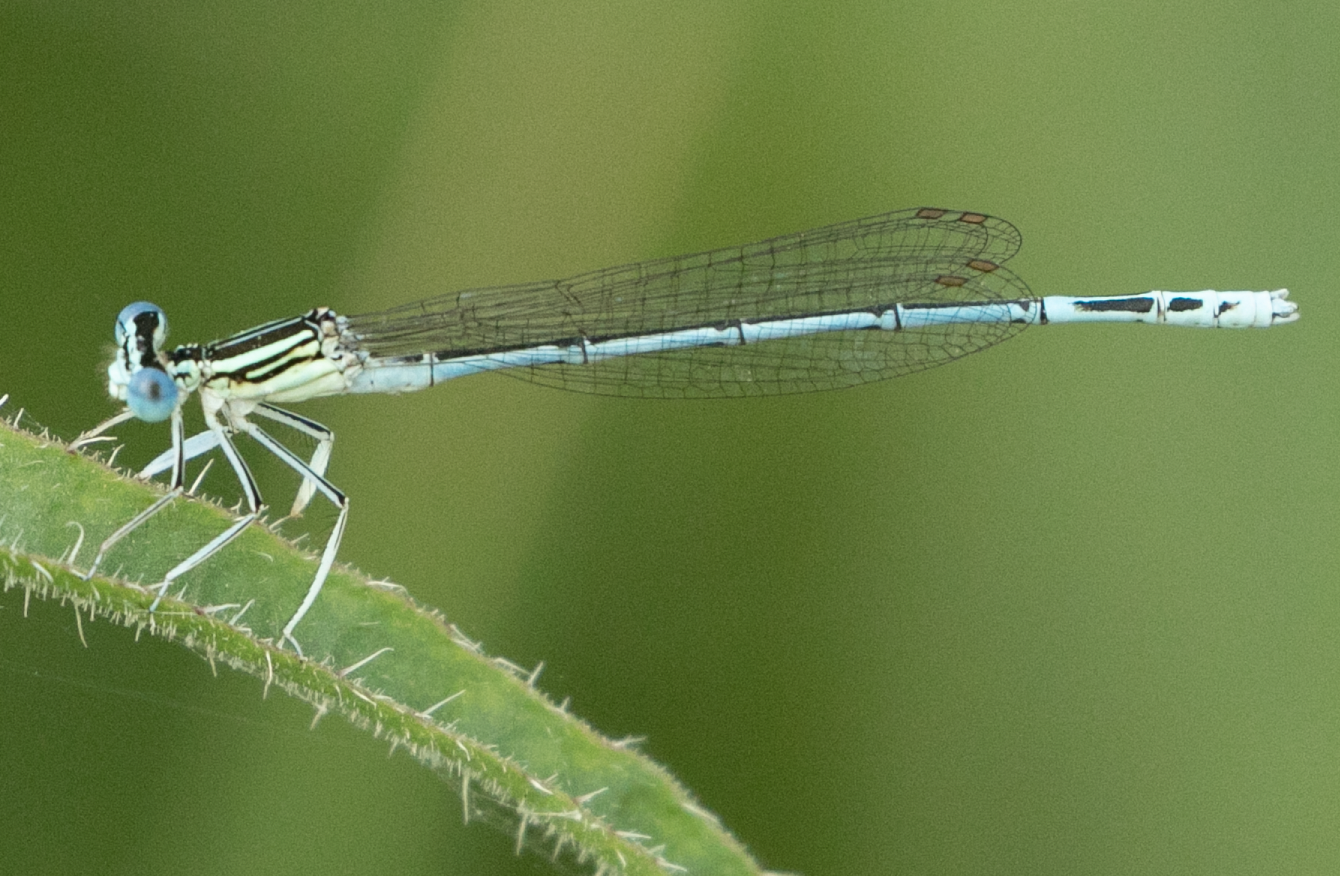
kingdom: Animalia
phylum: Arthropoda
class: Insecta
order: Odonata
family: Platycnemididae
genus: Platycnemis
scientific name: Platycnemis pennipes
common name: White-legged damselfly
